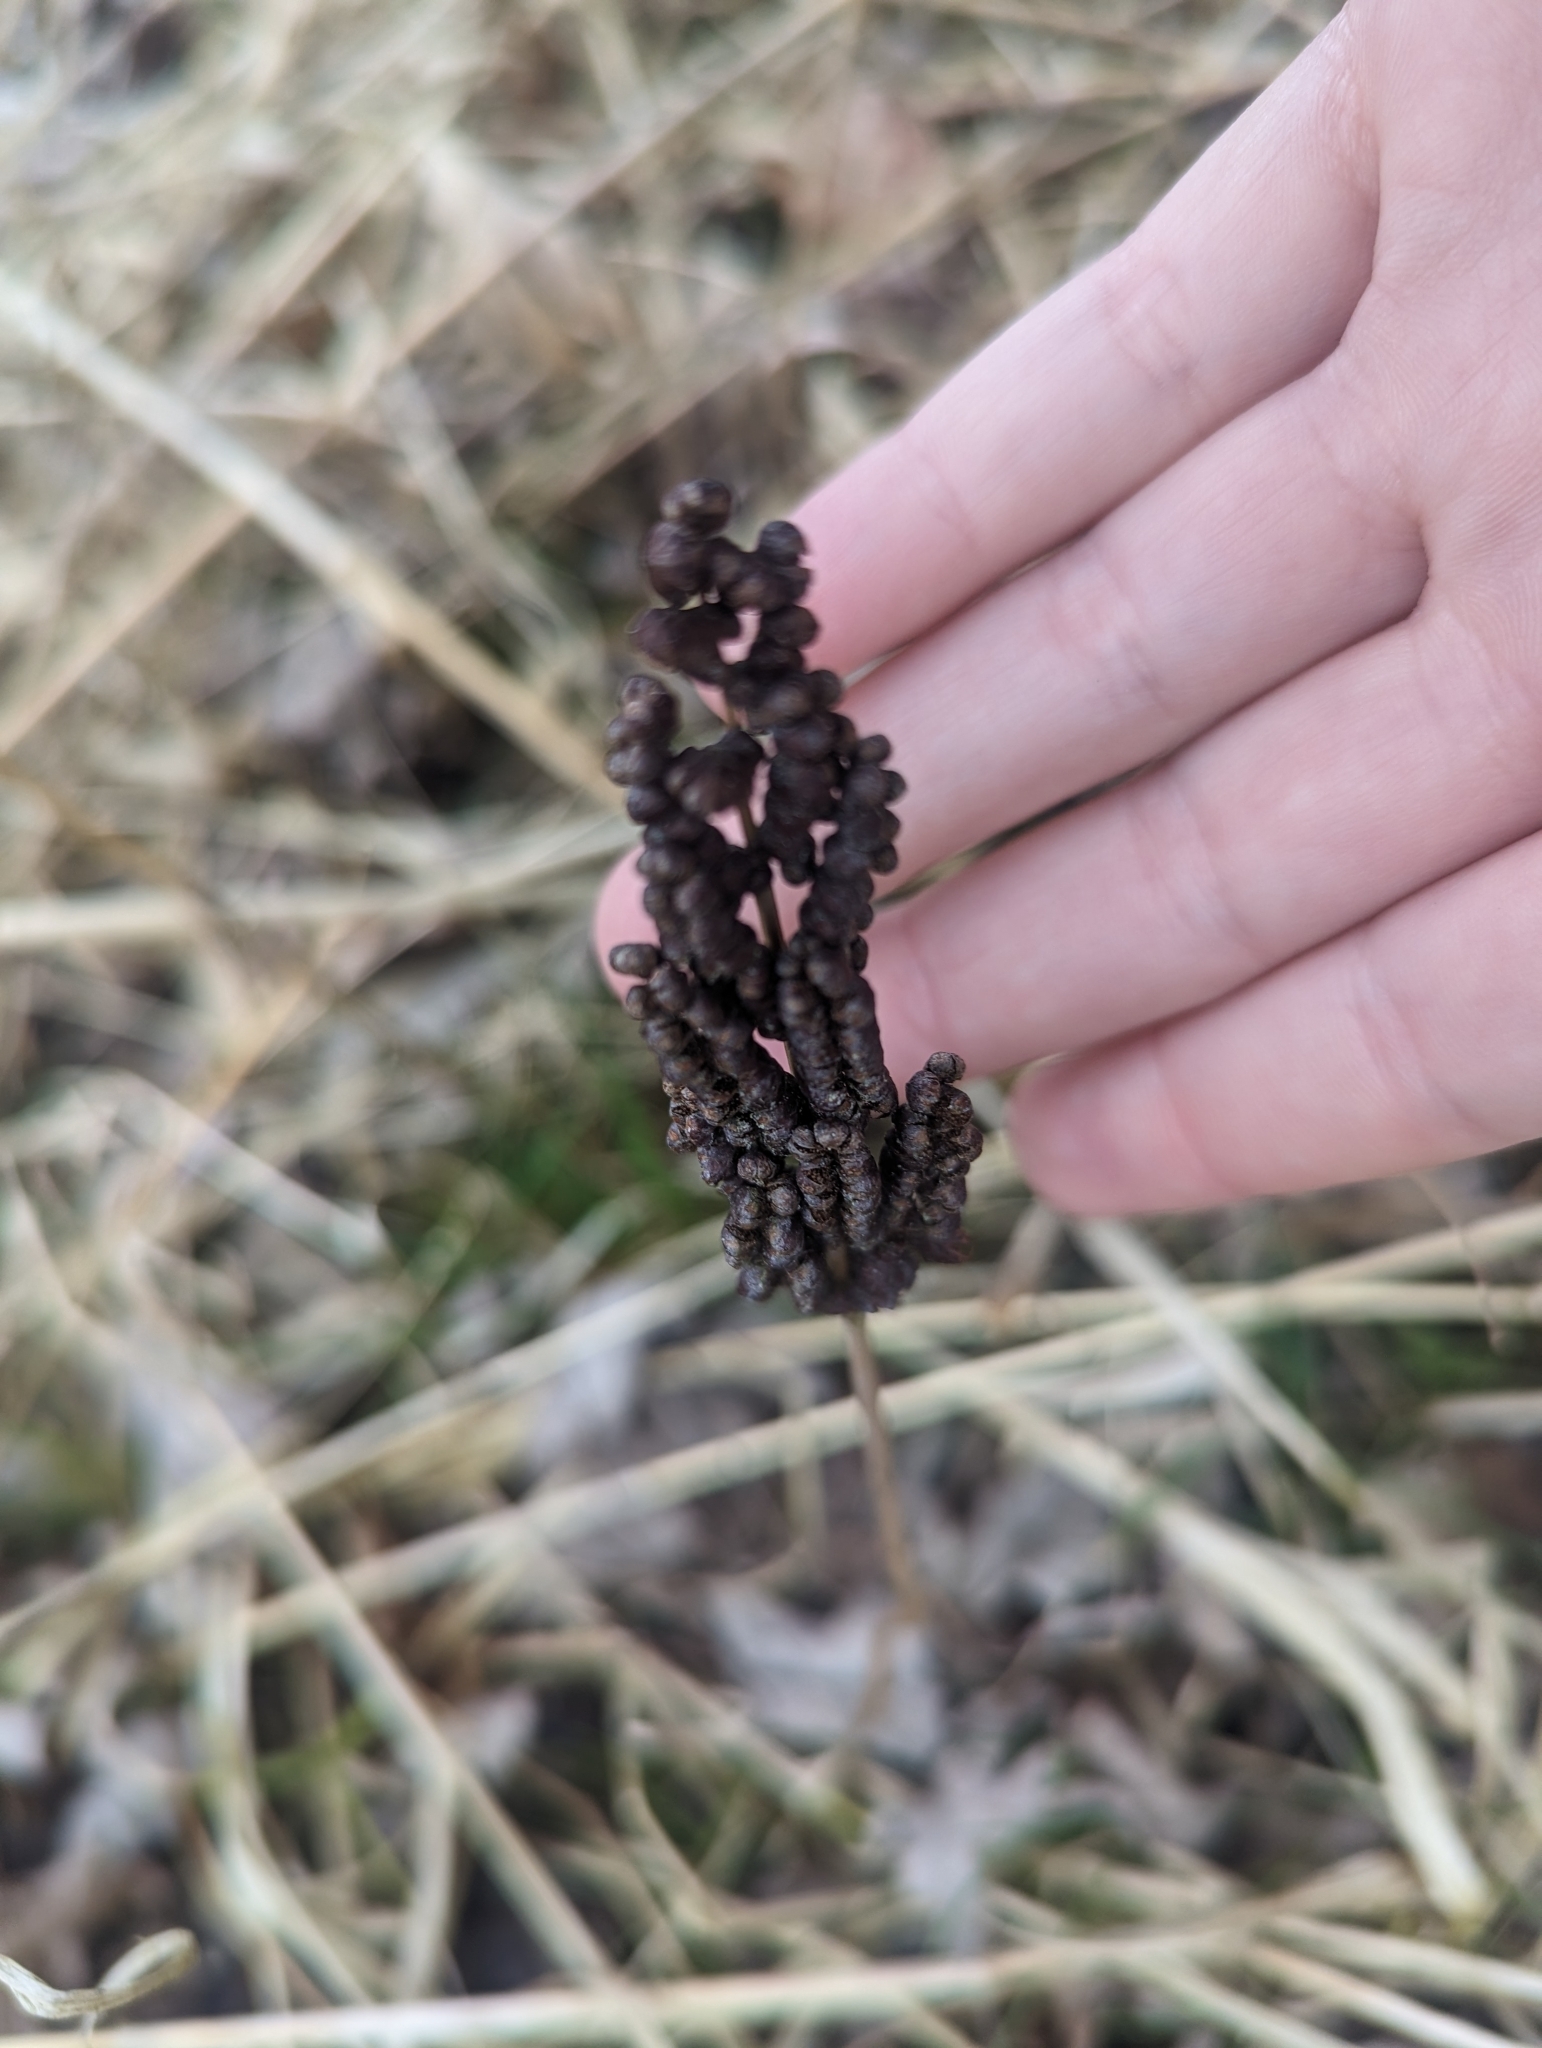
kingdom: Plantae
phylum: Tracheophyta
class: Polypodiopsida
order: Polypodiales
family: Onocleaceae
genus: Onoclea
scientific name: Onoclea sensibilis
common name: Sensitive fern
